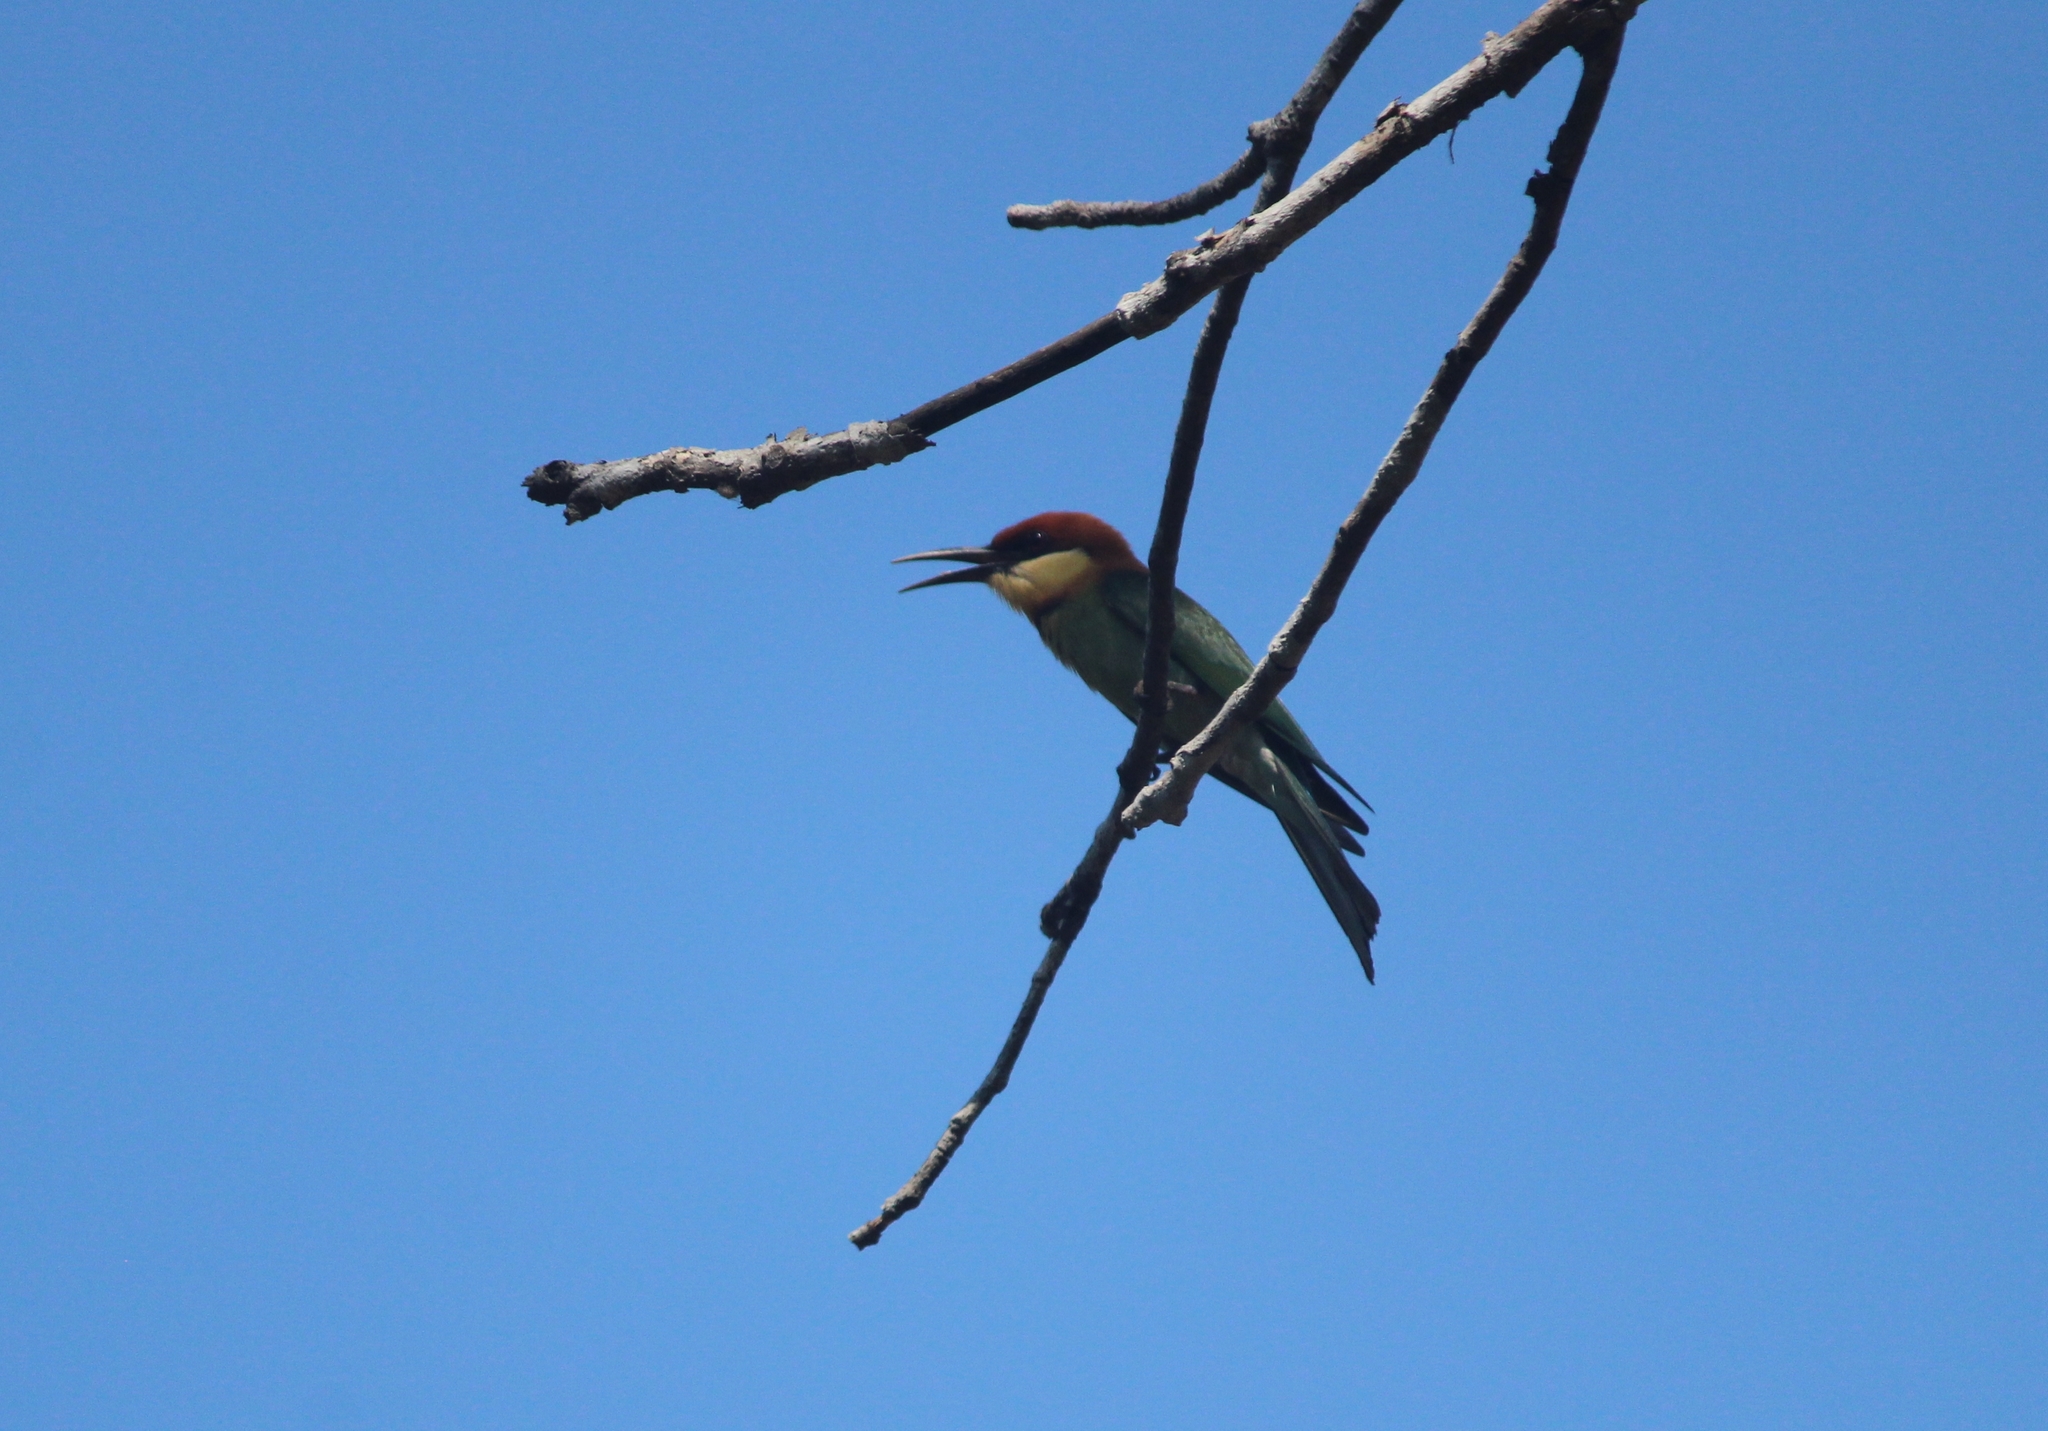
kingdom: Animalia
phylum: Chordata
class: Aves
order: Coraciiformes
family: Meropidae
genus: Merops
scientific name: Merops leschenaulti
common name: Chestnut-headed bee-eater
